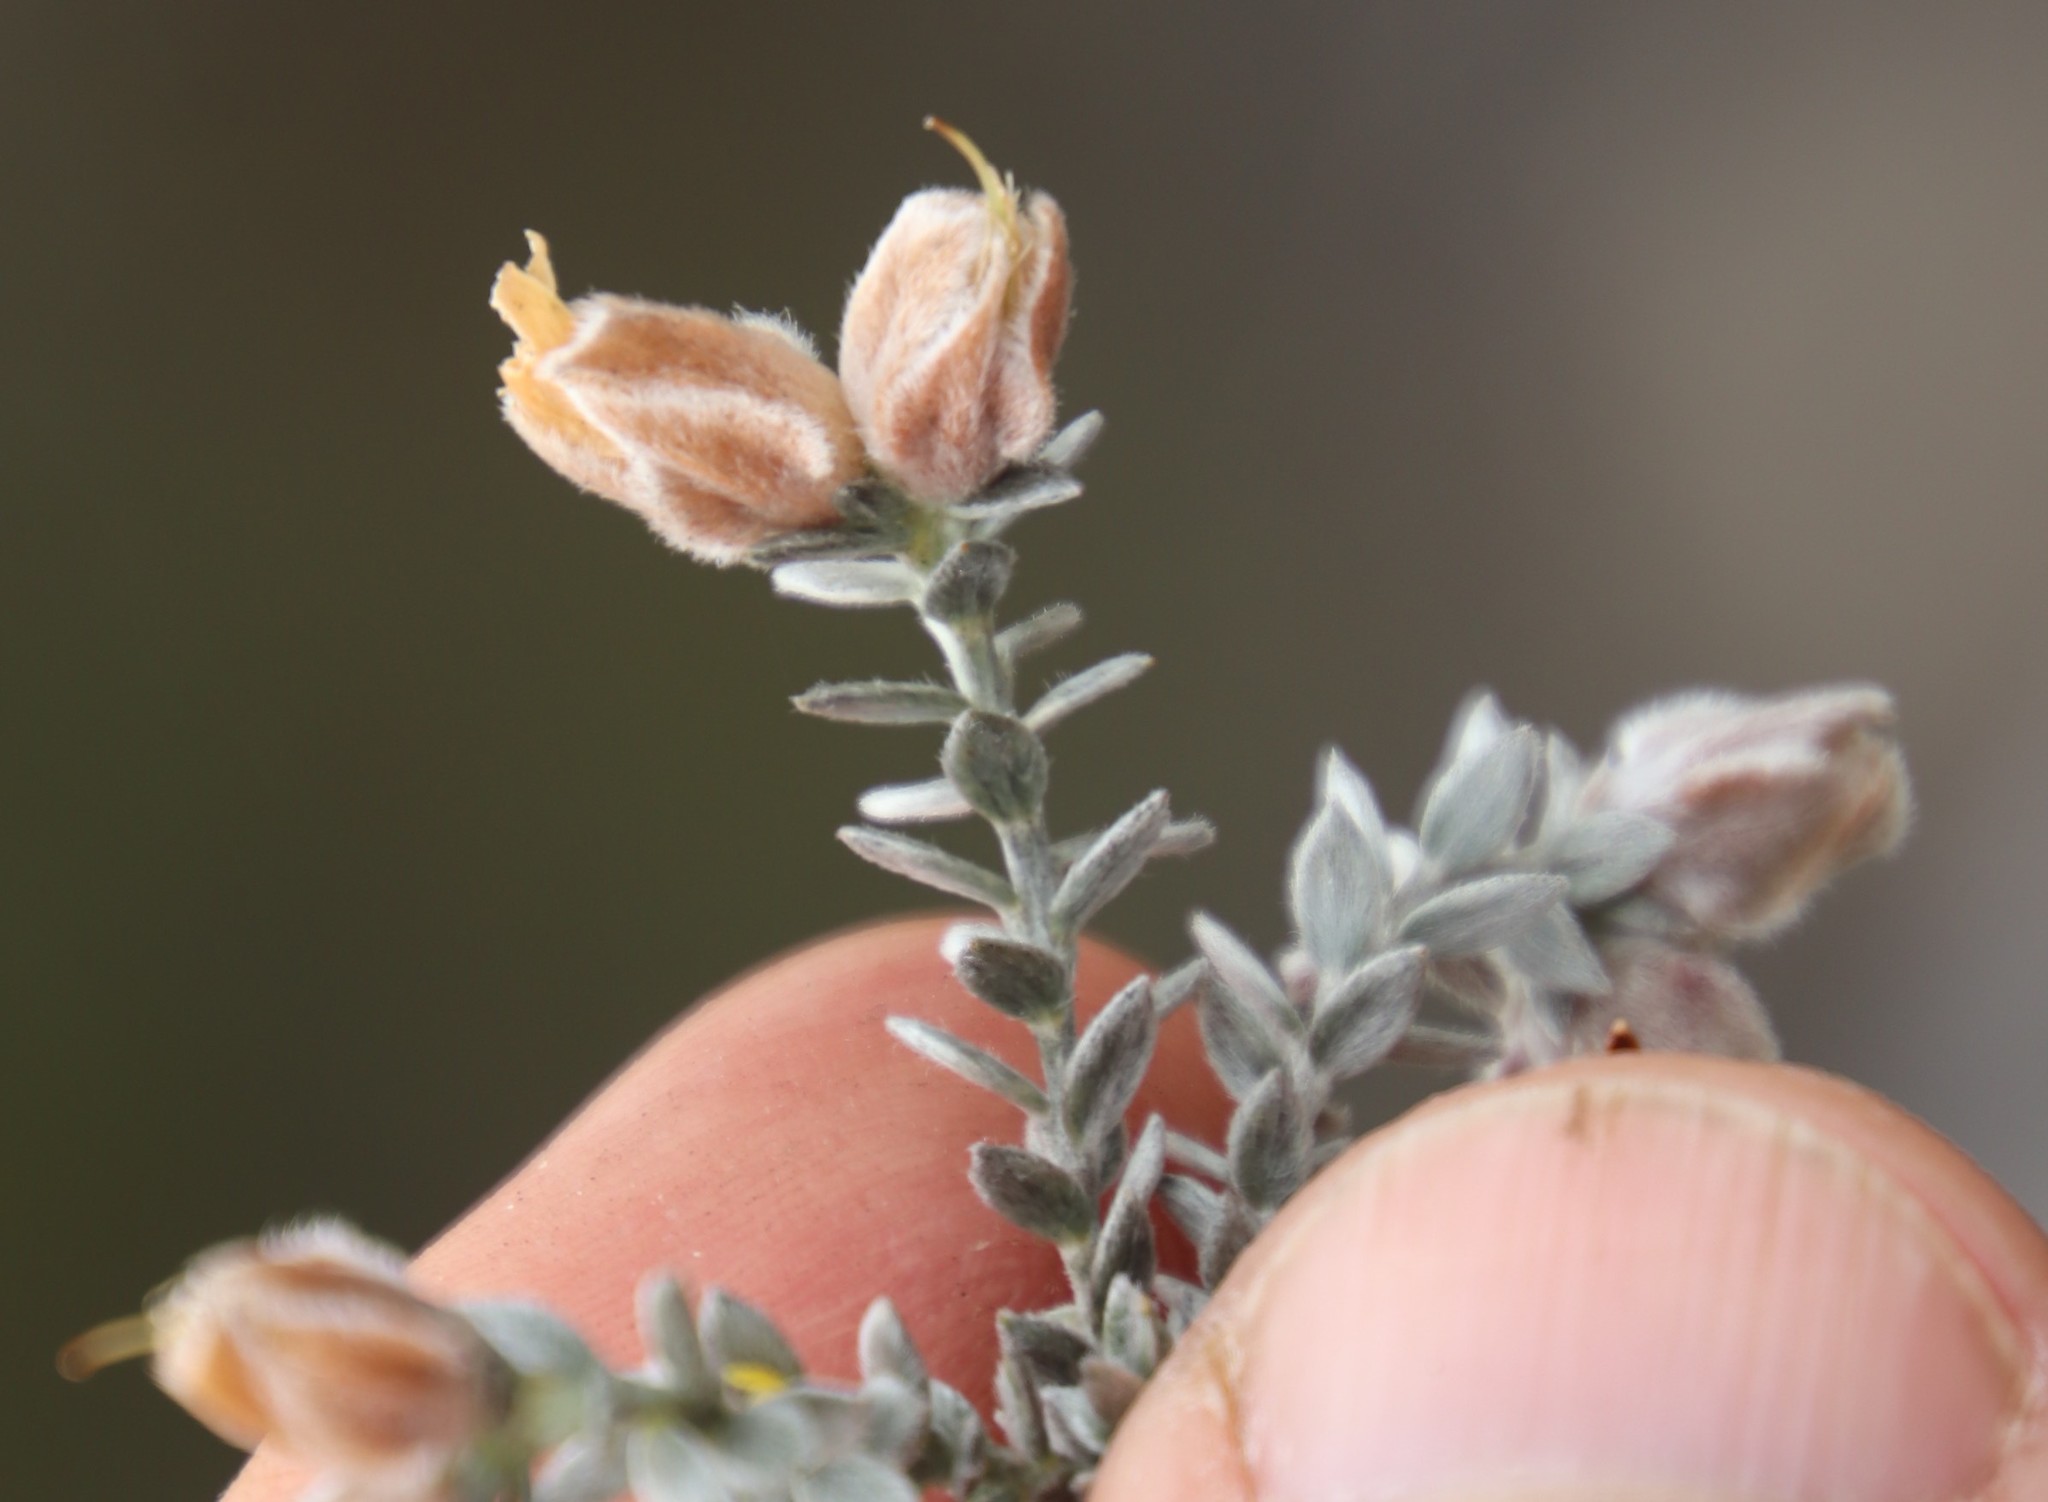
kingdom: Plantae
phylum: Tracheophyta
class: Magnoliopsida
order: Fabales
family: Fabaceae
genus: Amphithalea
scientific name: Amphithalea tomentosa
